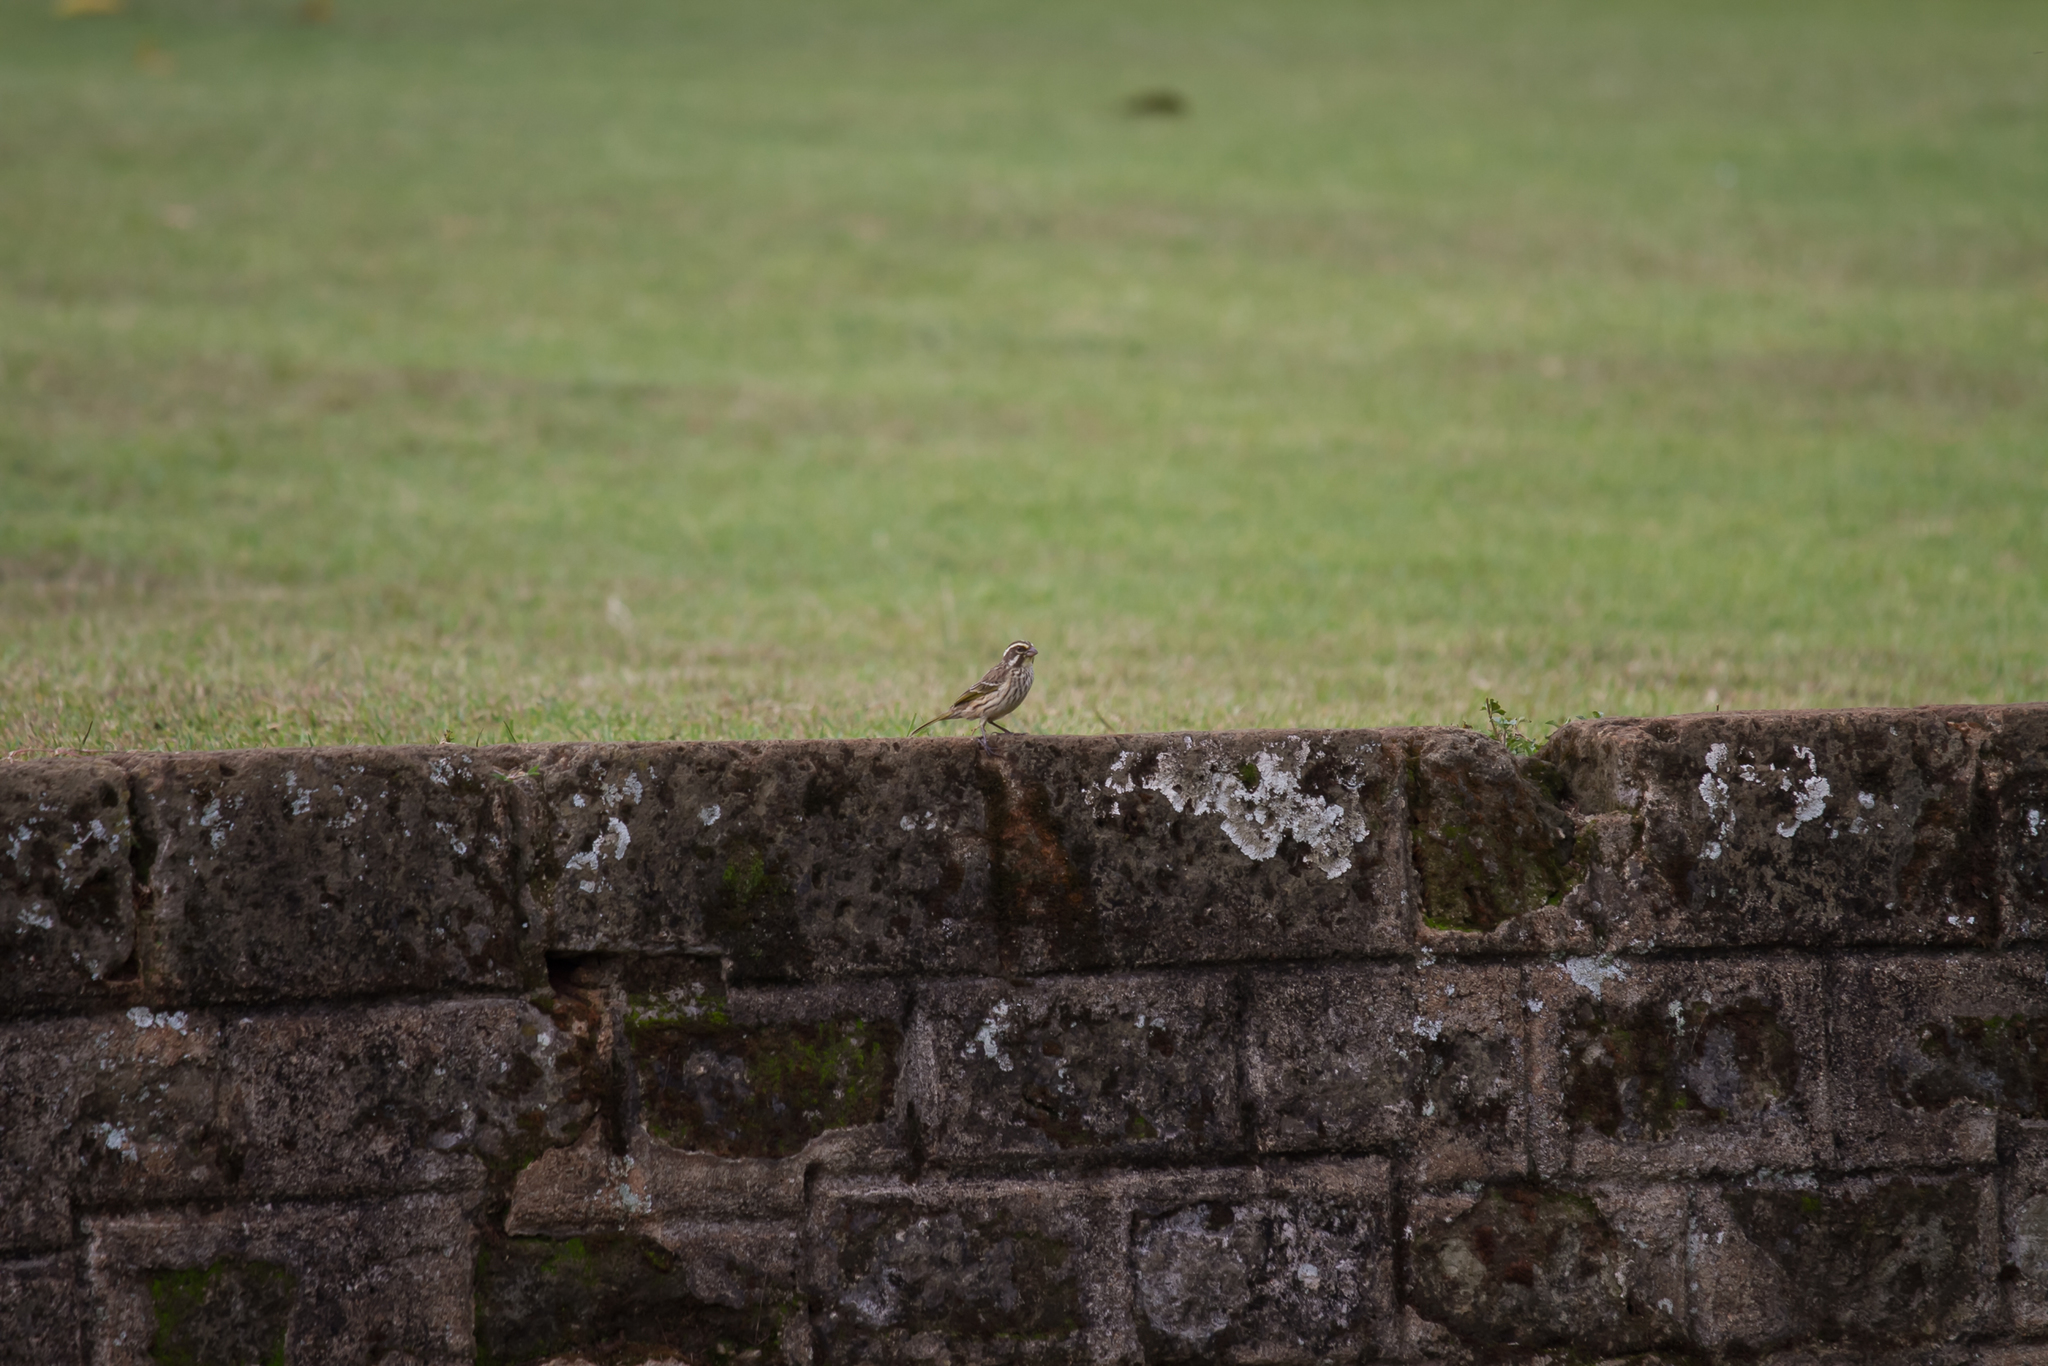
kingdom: Animalia
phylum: Chordata
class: Aves
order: Passeriformes
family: Fringillidae
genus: Crithagra
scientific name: Crithagra striolata
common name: Streaky seedeater
